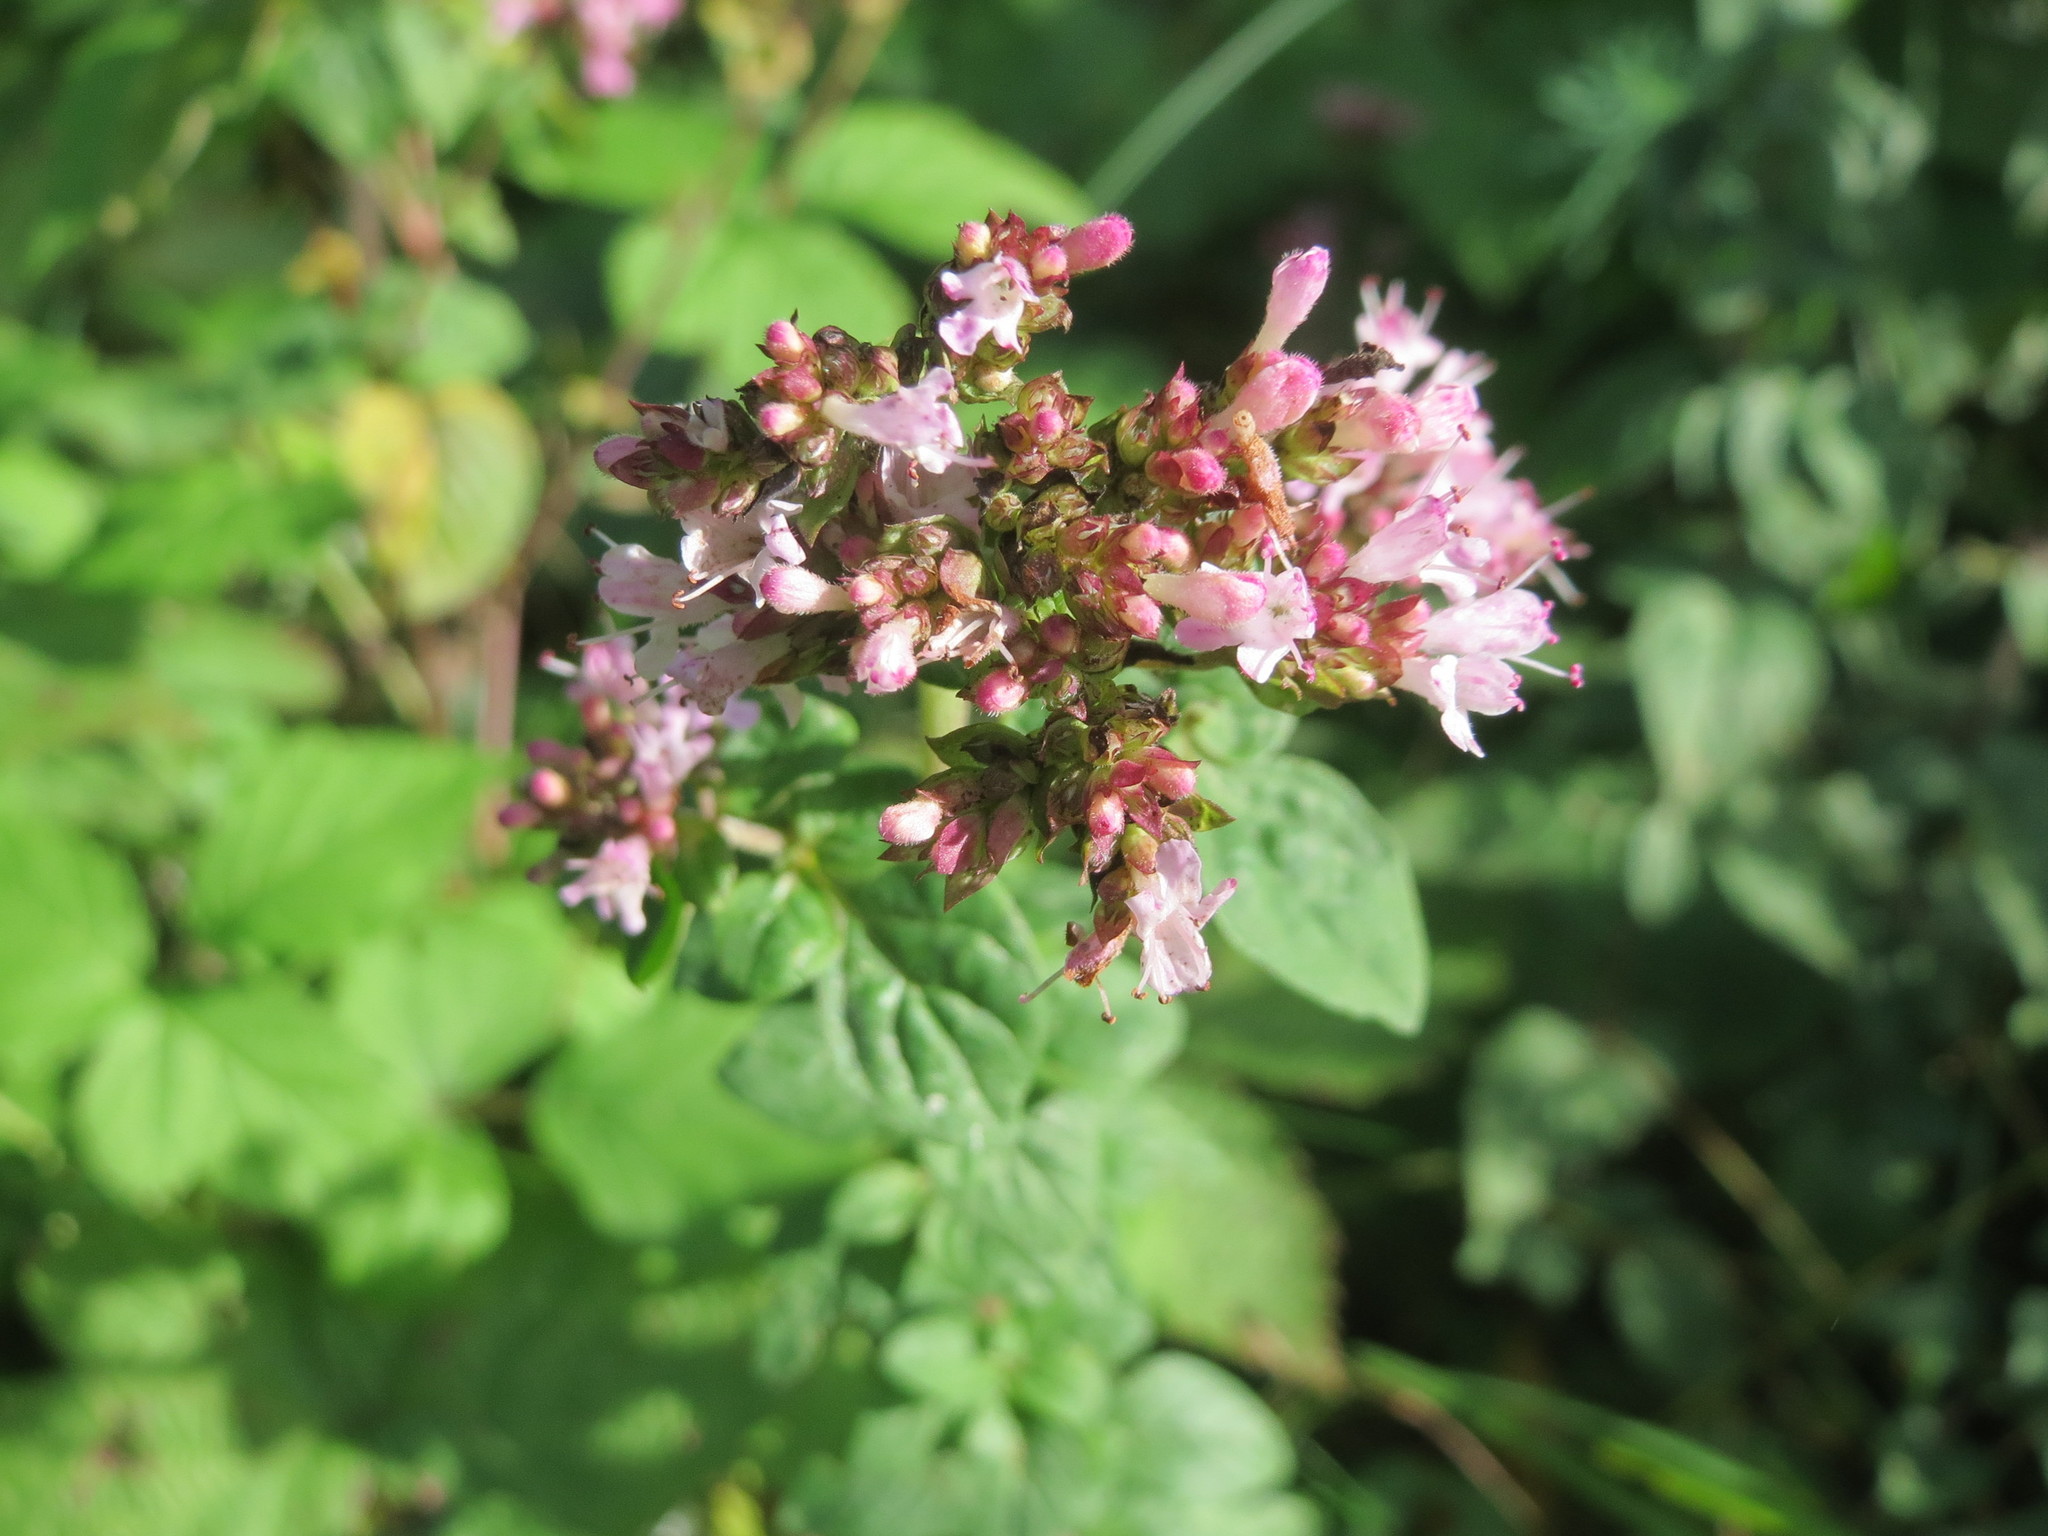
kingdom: Plantae
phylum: Tracheophyta
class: Magnoliopsida
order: Lamiales
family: Lamiaceae
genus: Origanum
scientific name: Origanum vulgare
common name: Wild marjoram
